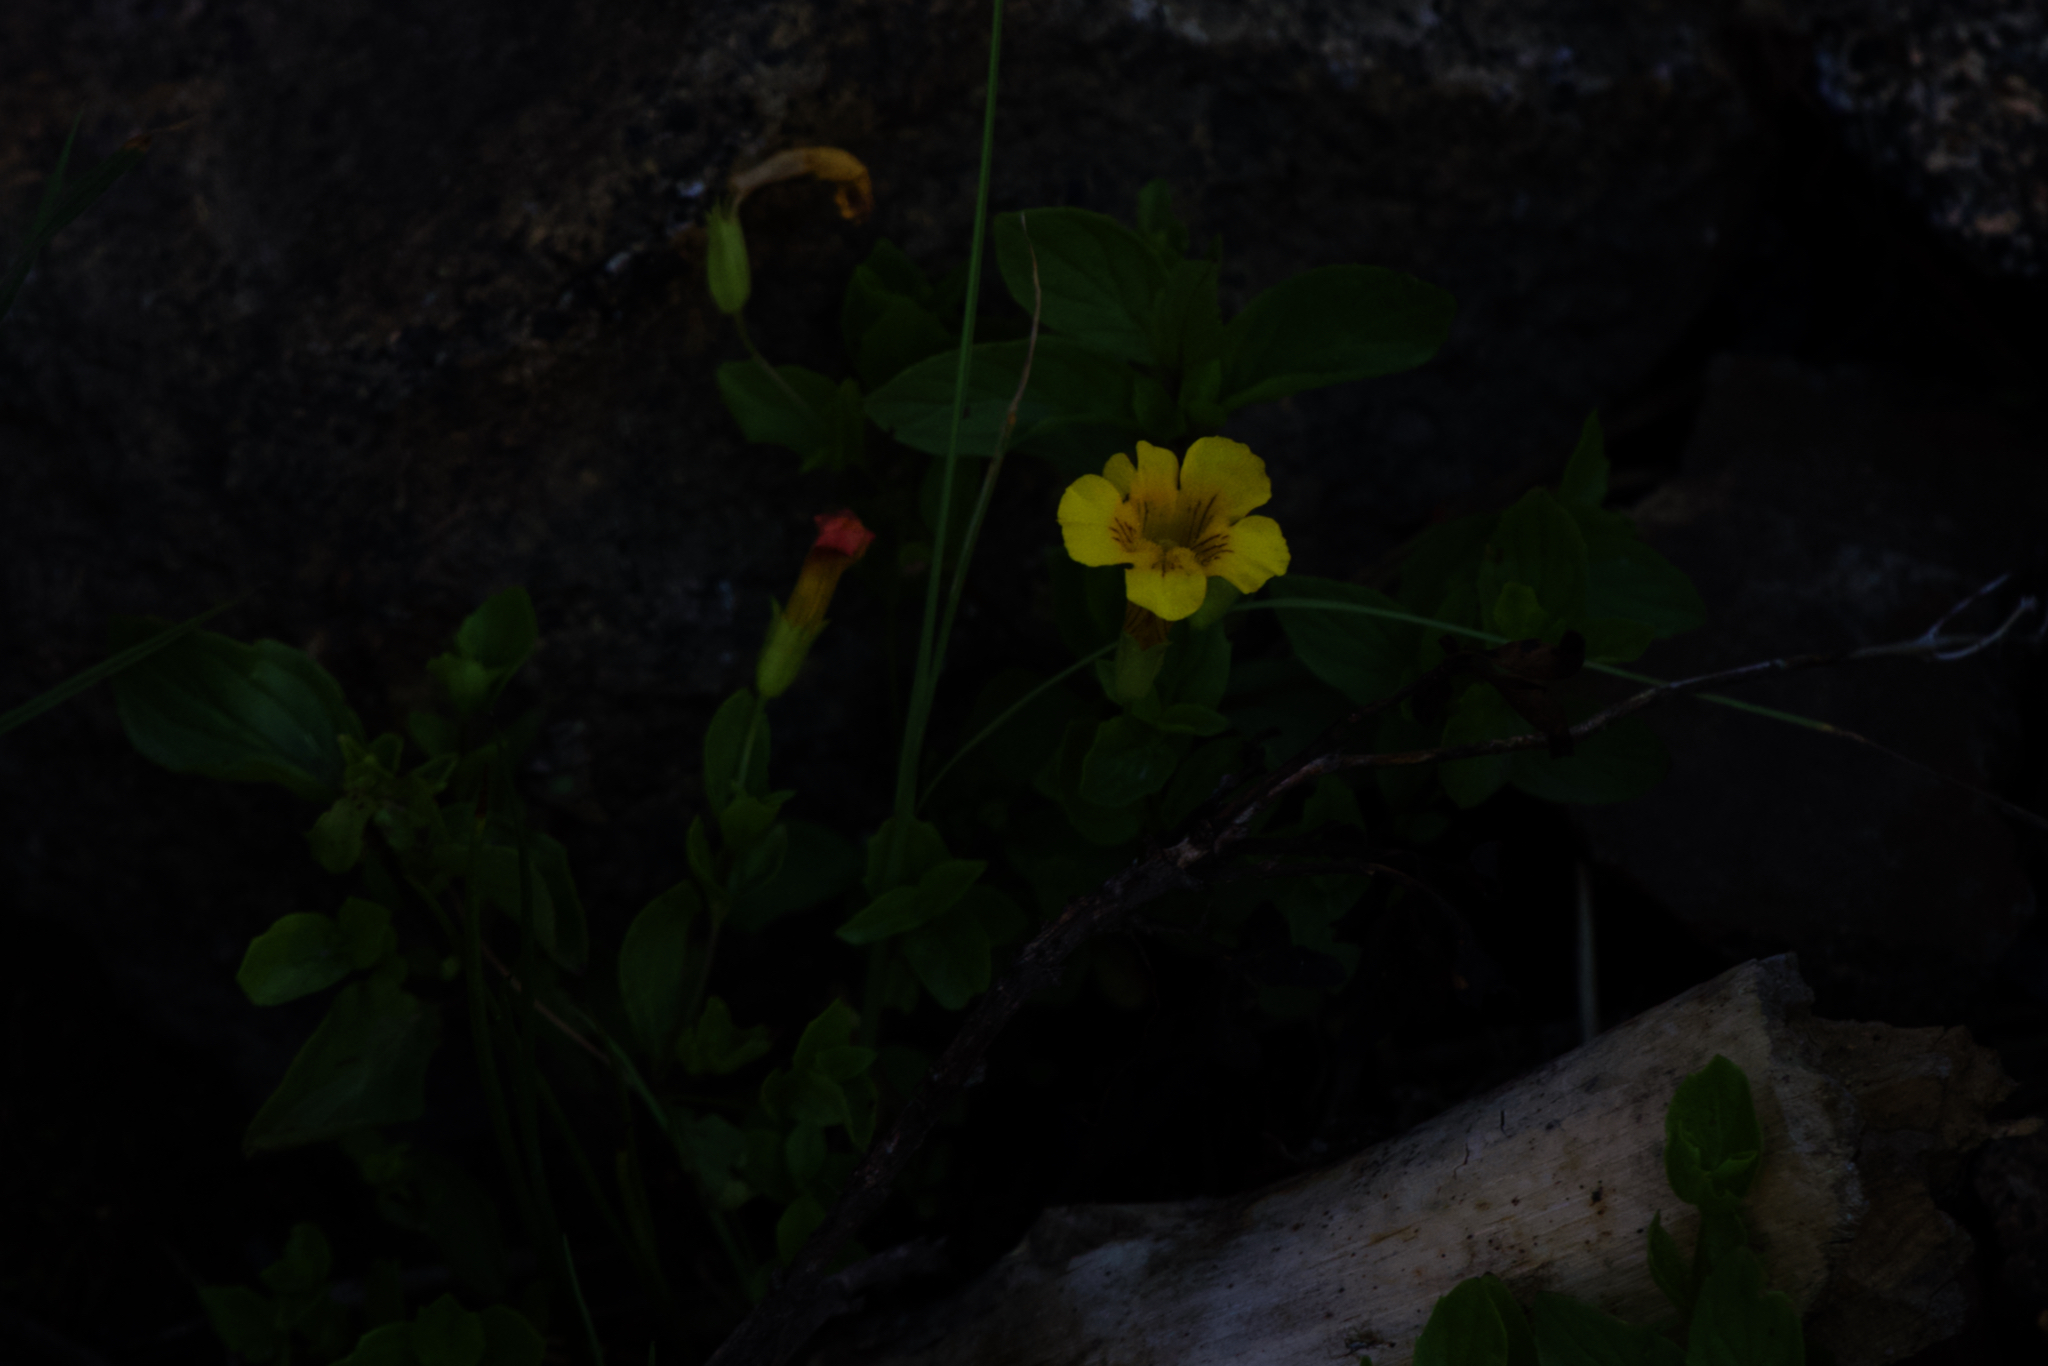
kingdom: Plantae
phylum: Tracheophyta
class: Magnoliopsida
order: Lamiales
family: Phrymaceae
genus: Erythranthe
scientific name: Erythranthe moschata
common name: Muskflower
